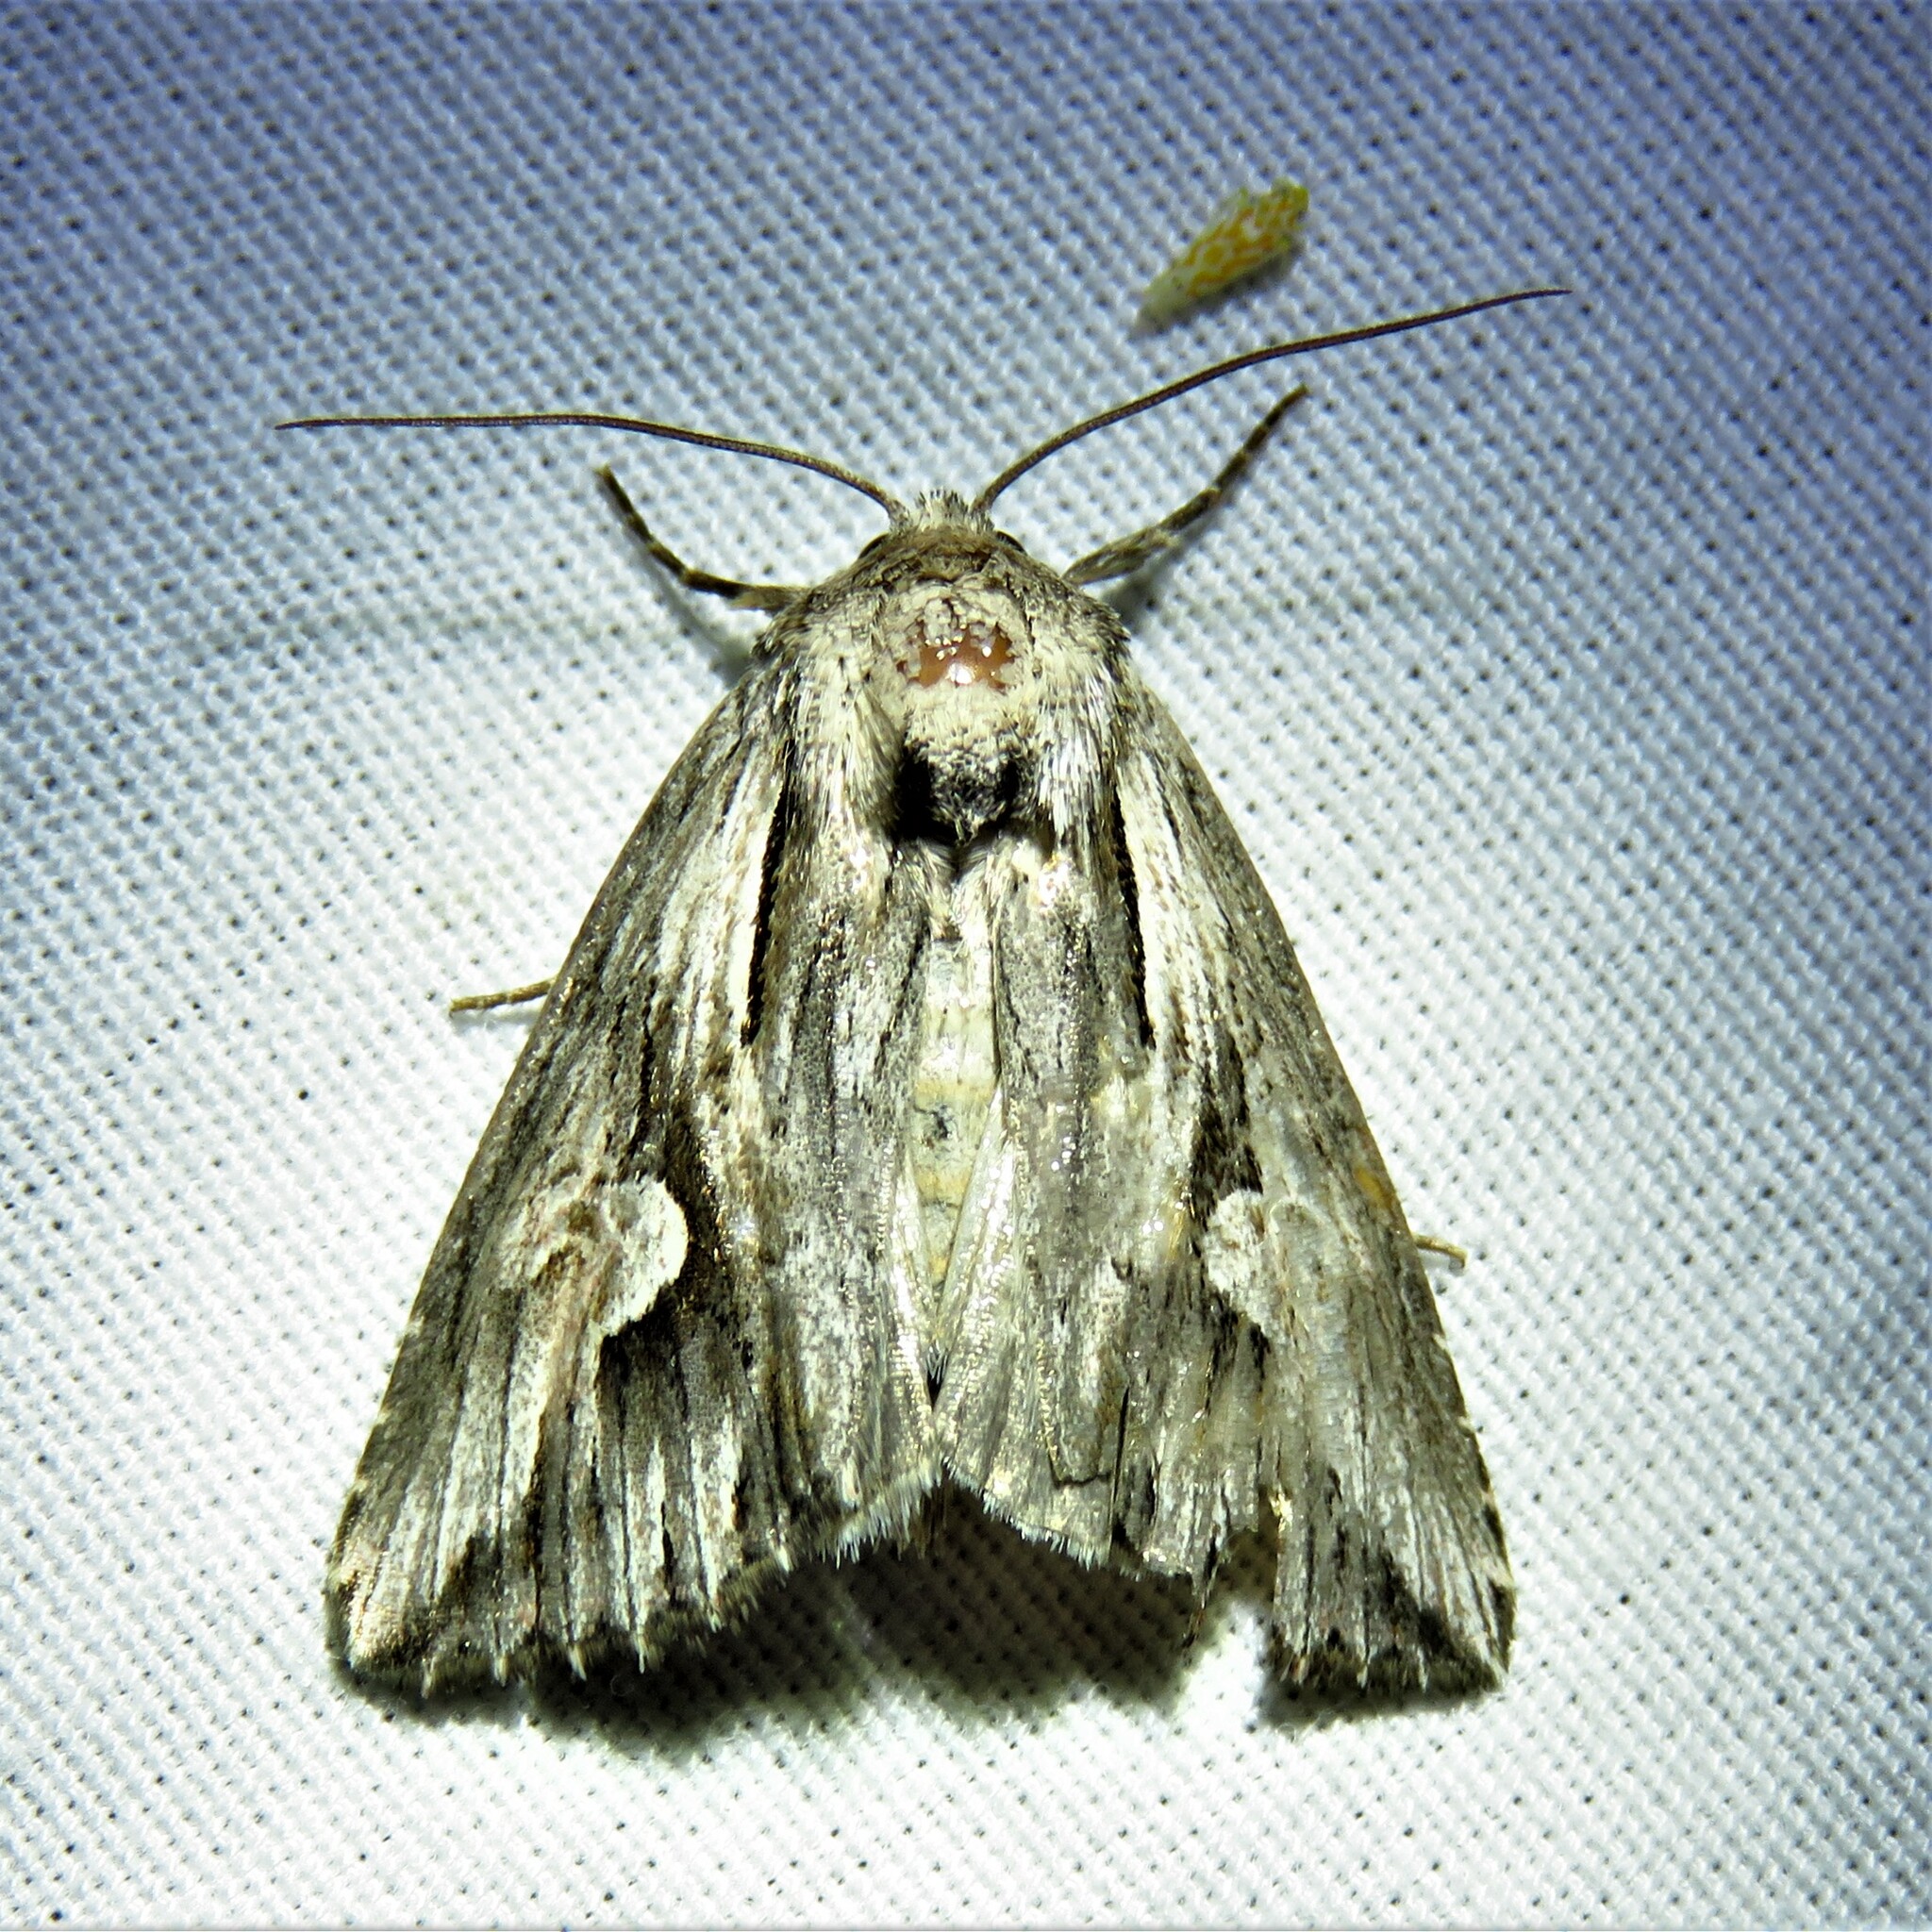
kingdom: Animalia
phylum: Arthropoda
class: Insecta
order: Lepidoptera
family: Noctuidae
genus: Nedra
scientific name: Nedra ramosula
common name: Gray half-spot
